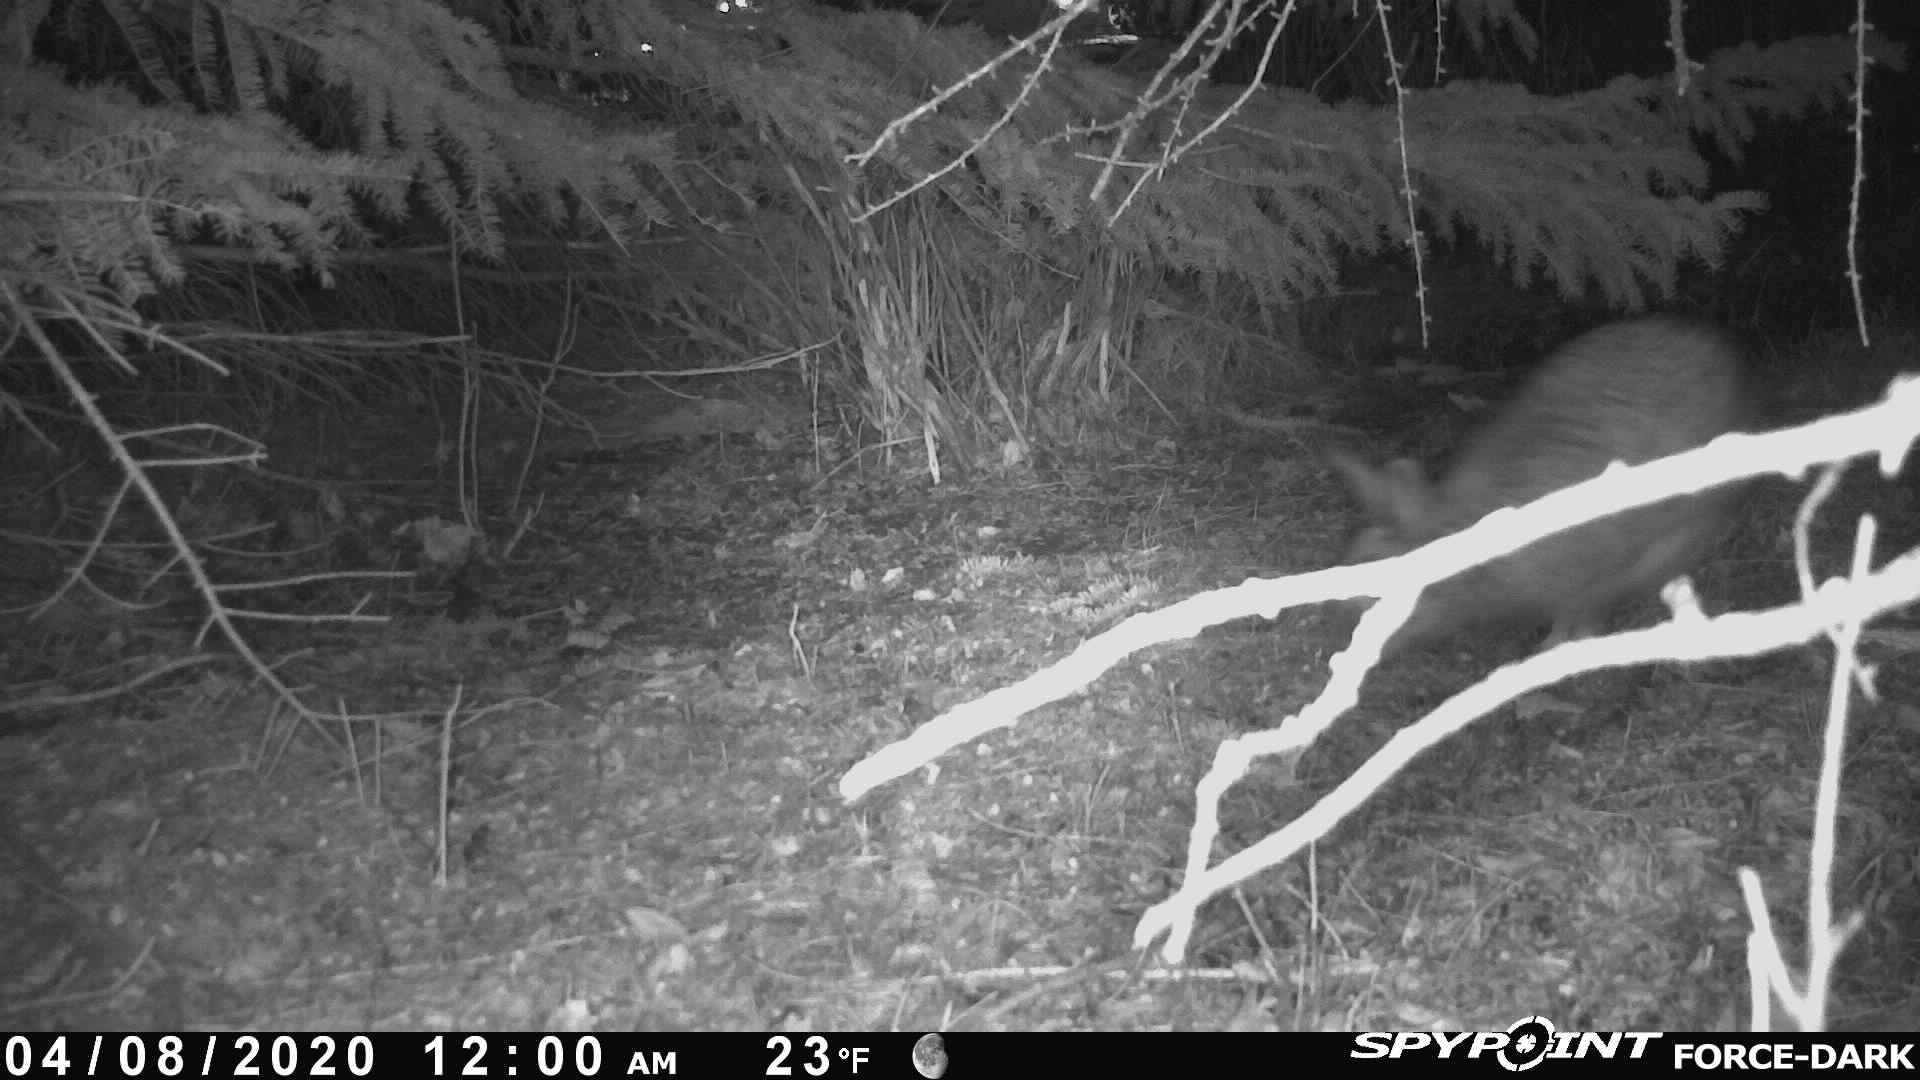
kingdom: Animalia
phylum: Chordata
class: Mammalia
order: Lagomorpha
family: Leporidae
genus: Sylvilagus
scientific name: Sylvilagus floridanus
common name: Eastern cottontail
